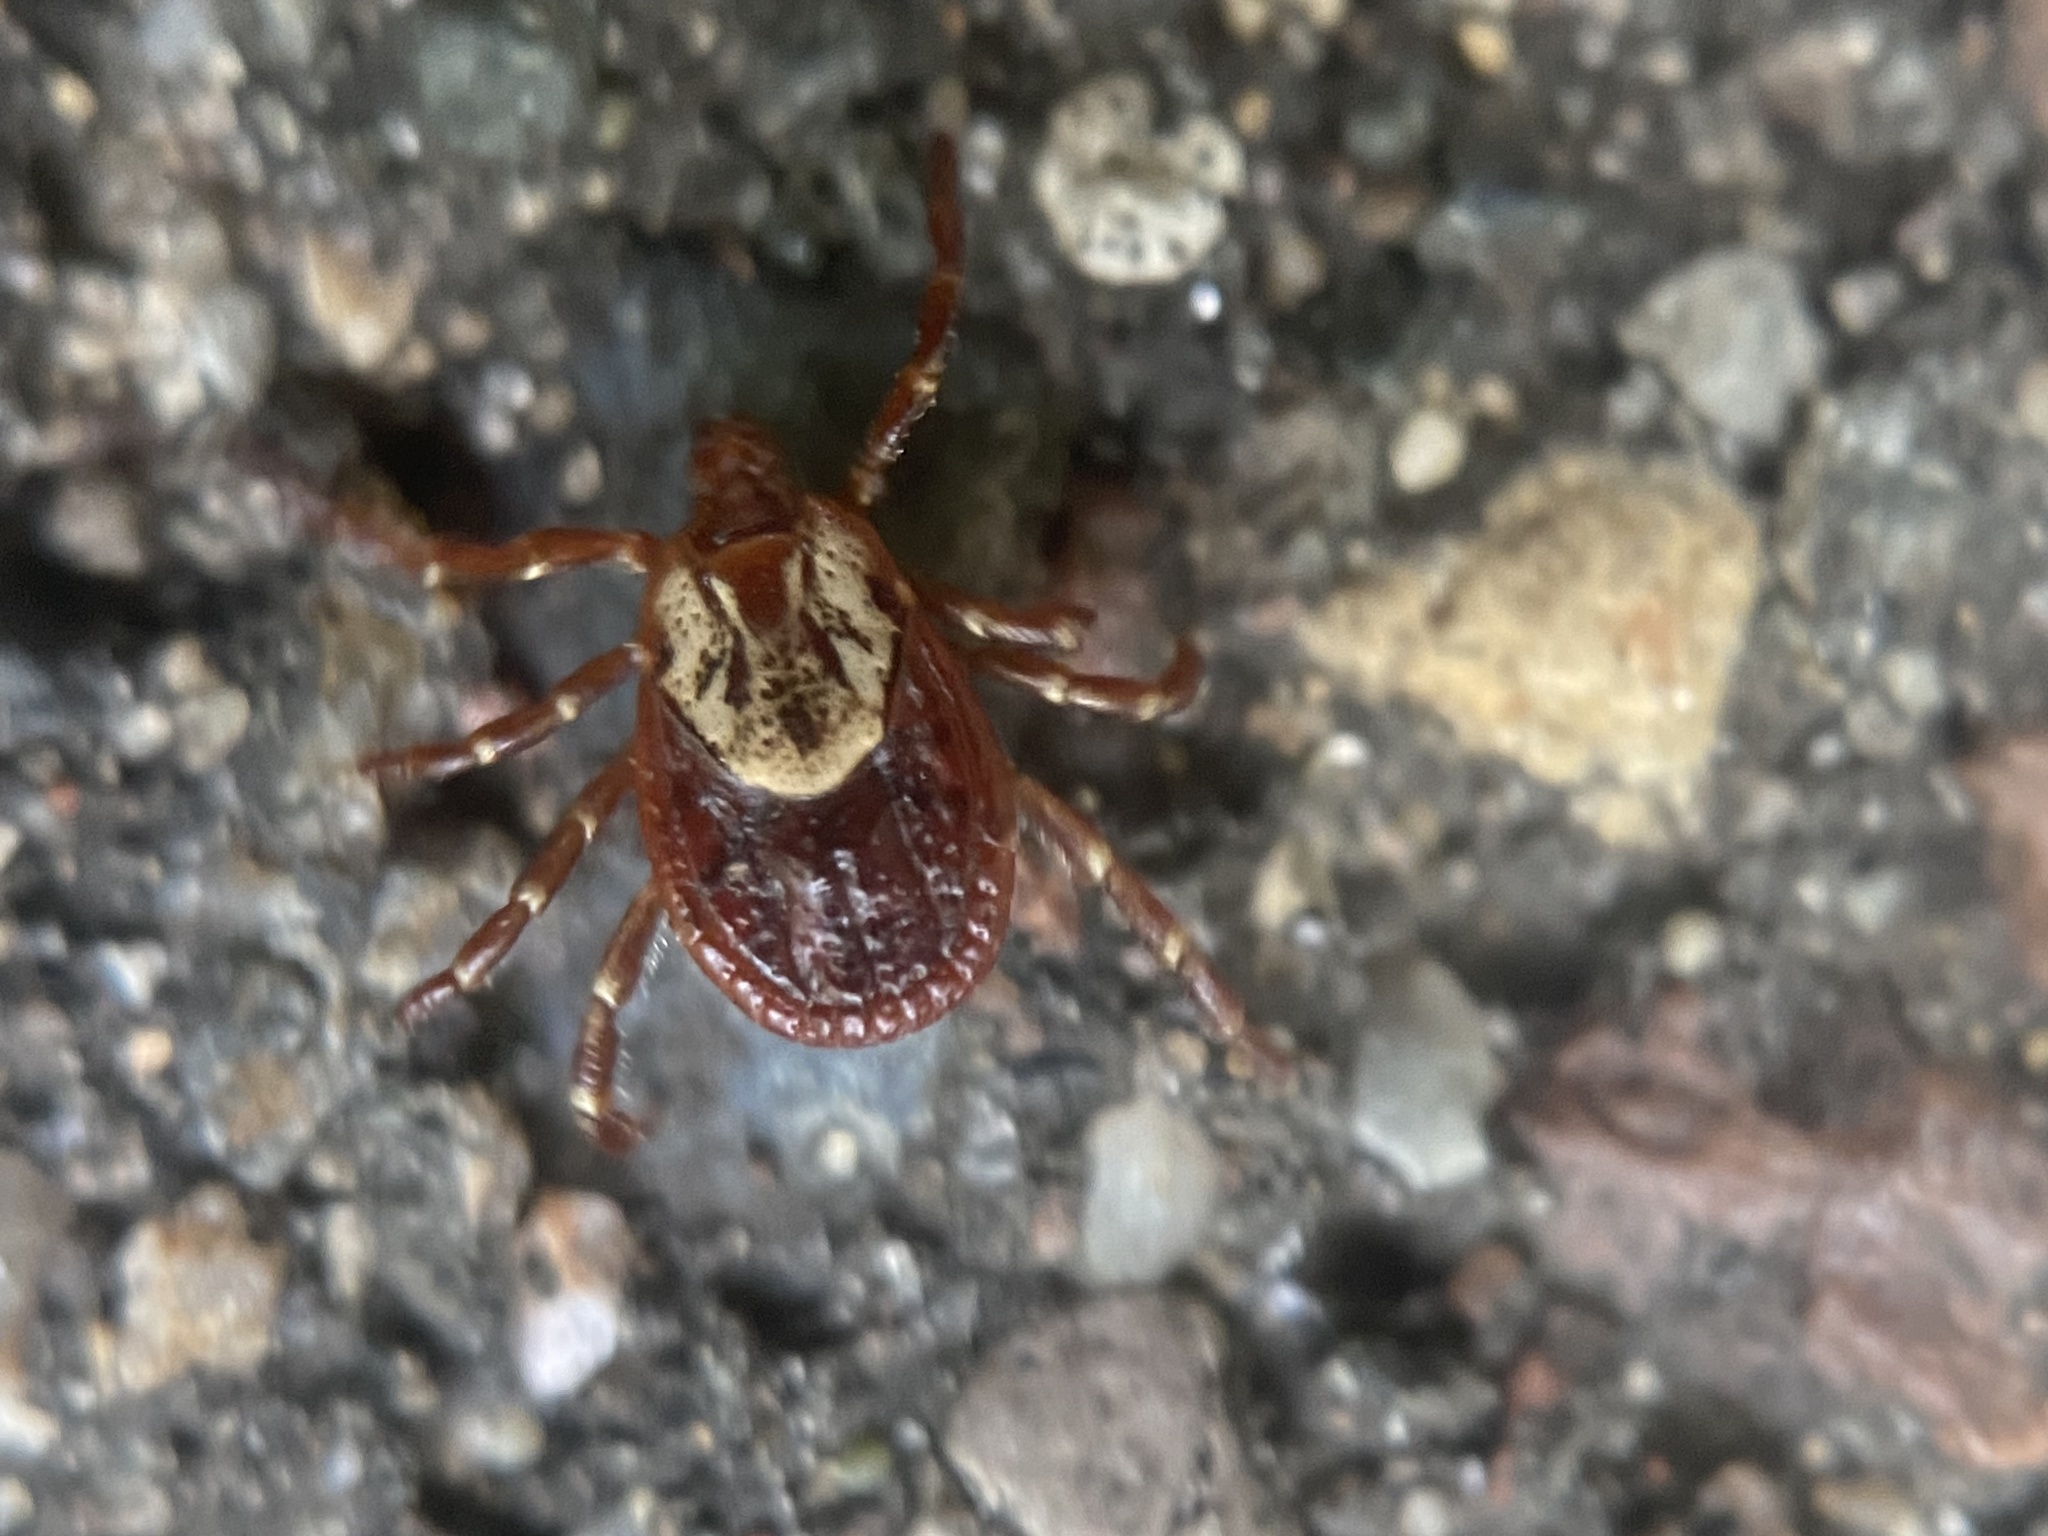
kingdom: Animalia
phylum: Arthropoda
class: Arachnida
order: Ixodida
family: Ixodidae
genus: Dermacentor
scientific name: Dermacentor variabilis
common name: American dog tick
